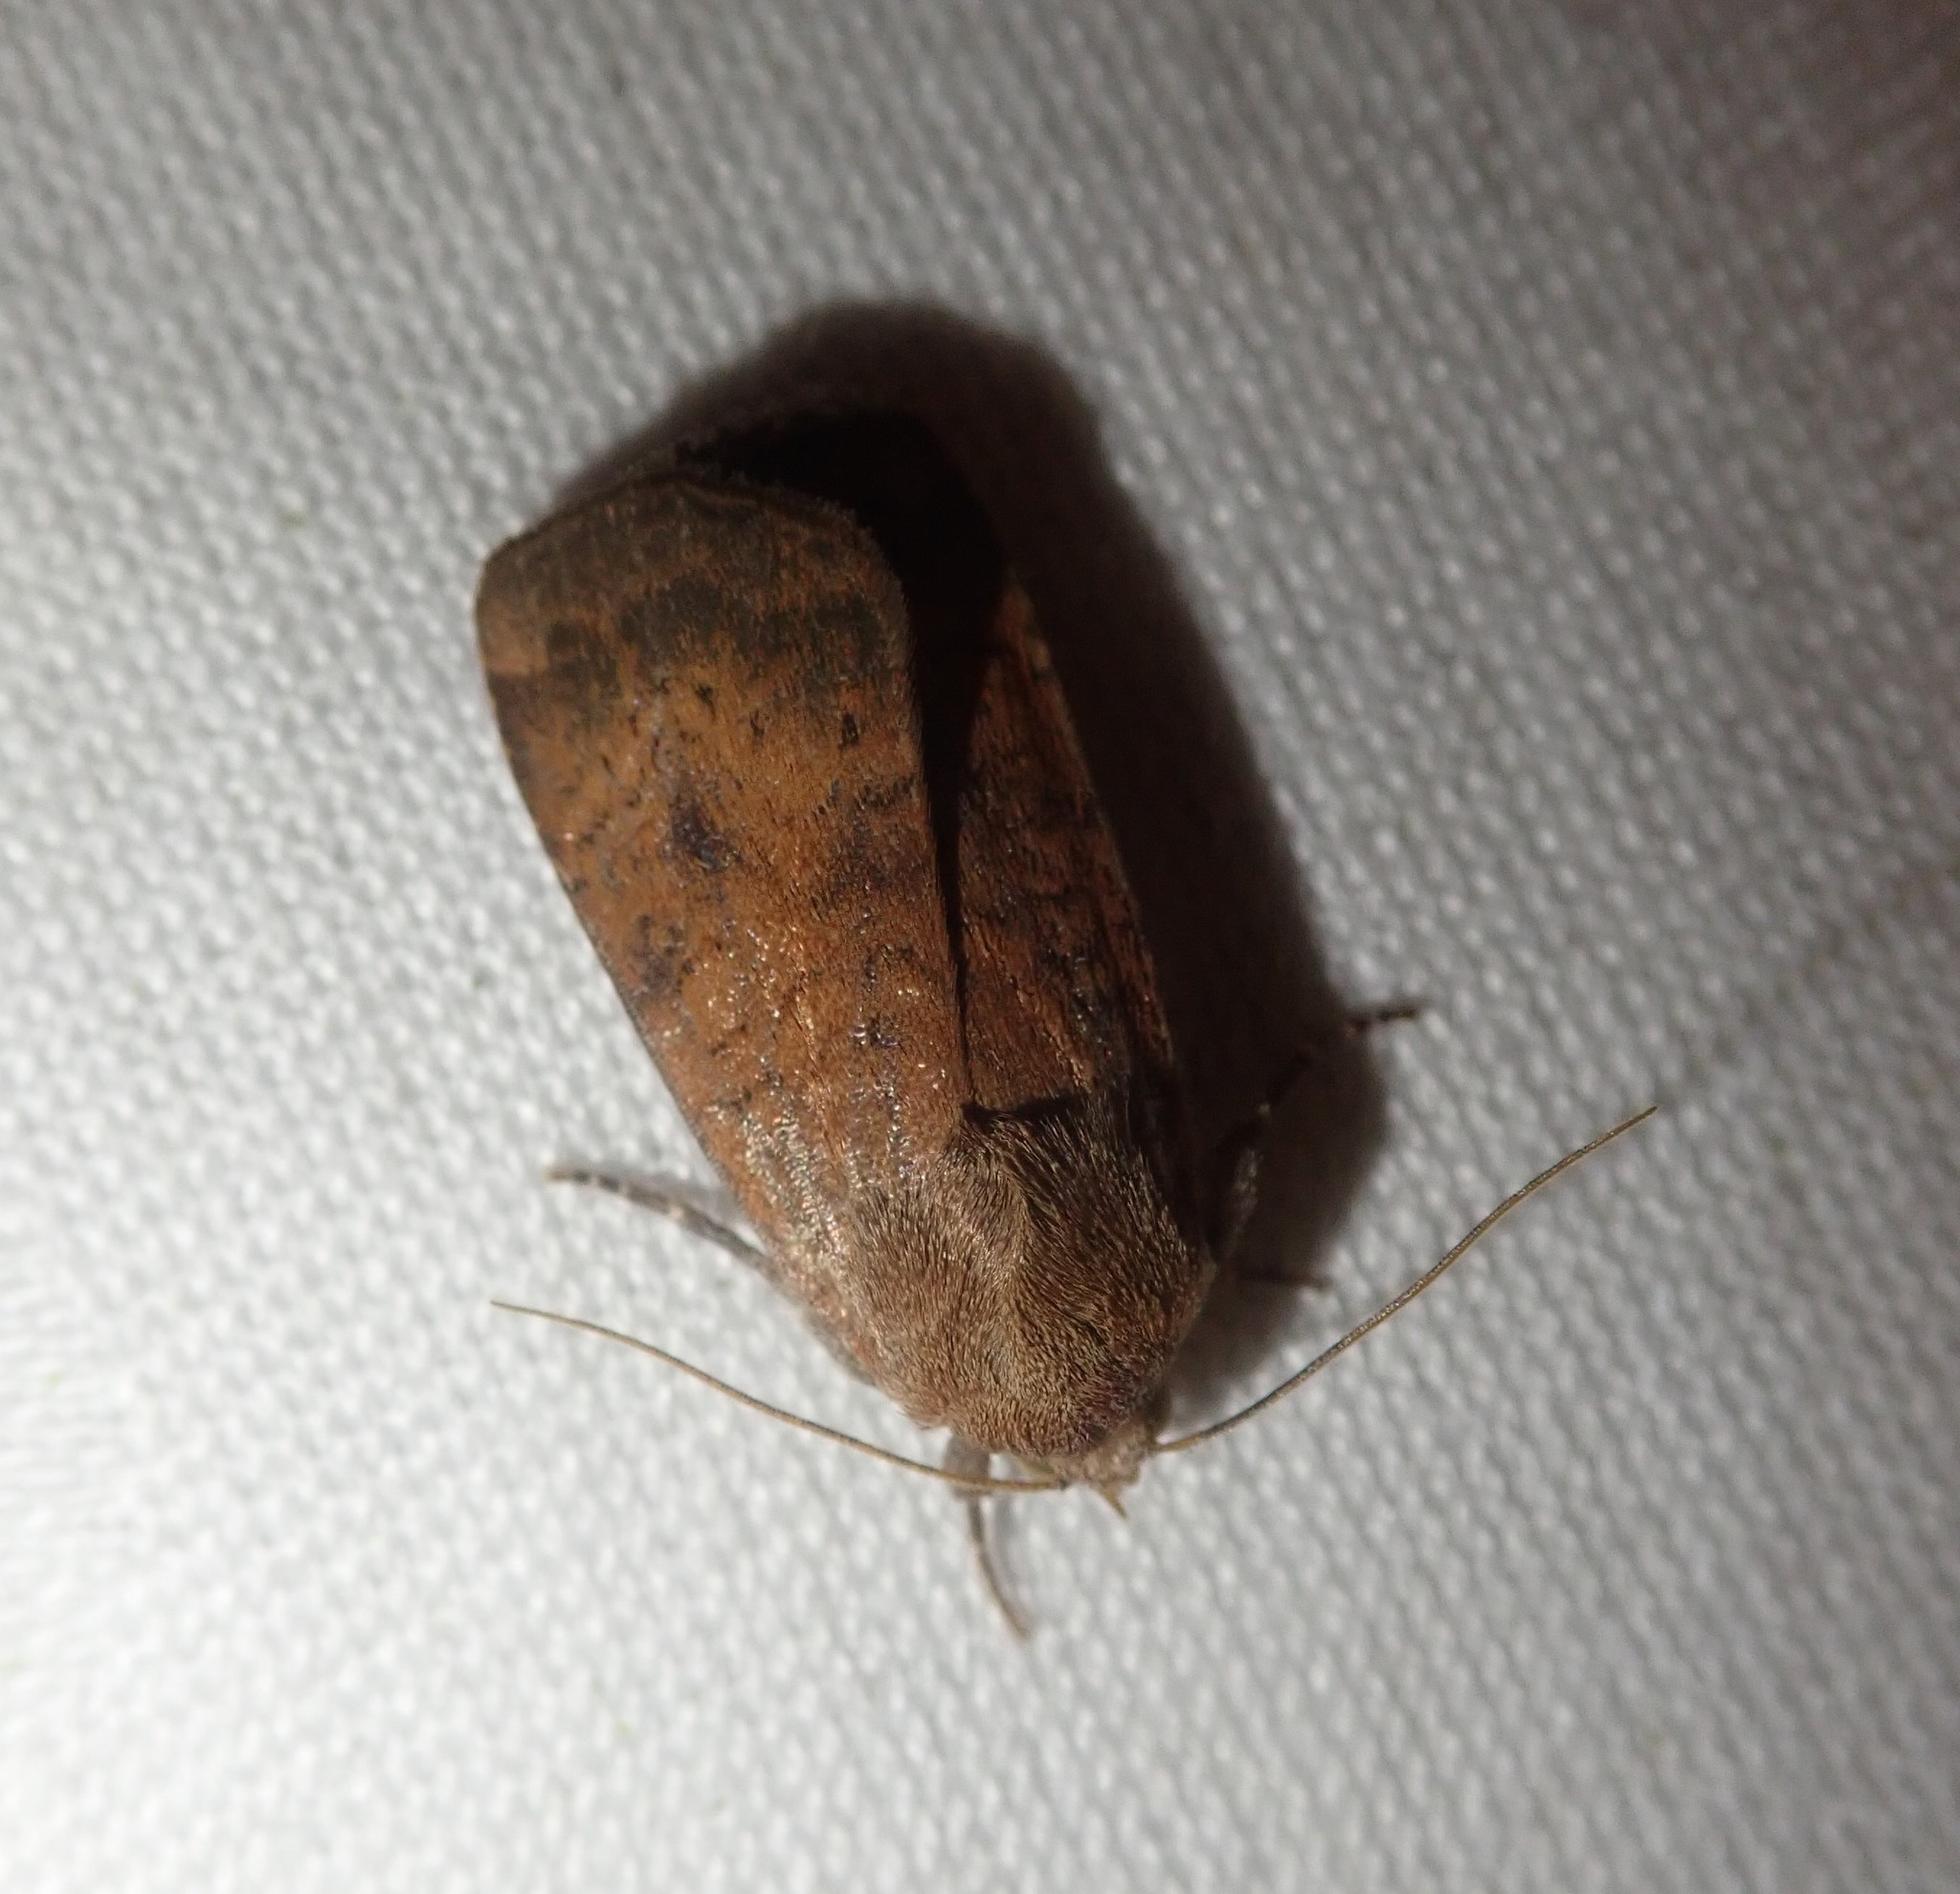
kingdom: Animalia
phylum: Arthropoda
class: Insecta
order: Lepidoptera
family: Noctuidae
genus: Noctua
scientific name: Noctua interjecta
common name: Least yellow underwing
